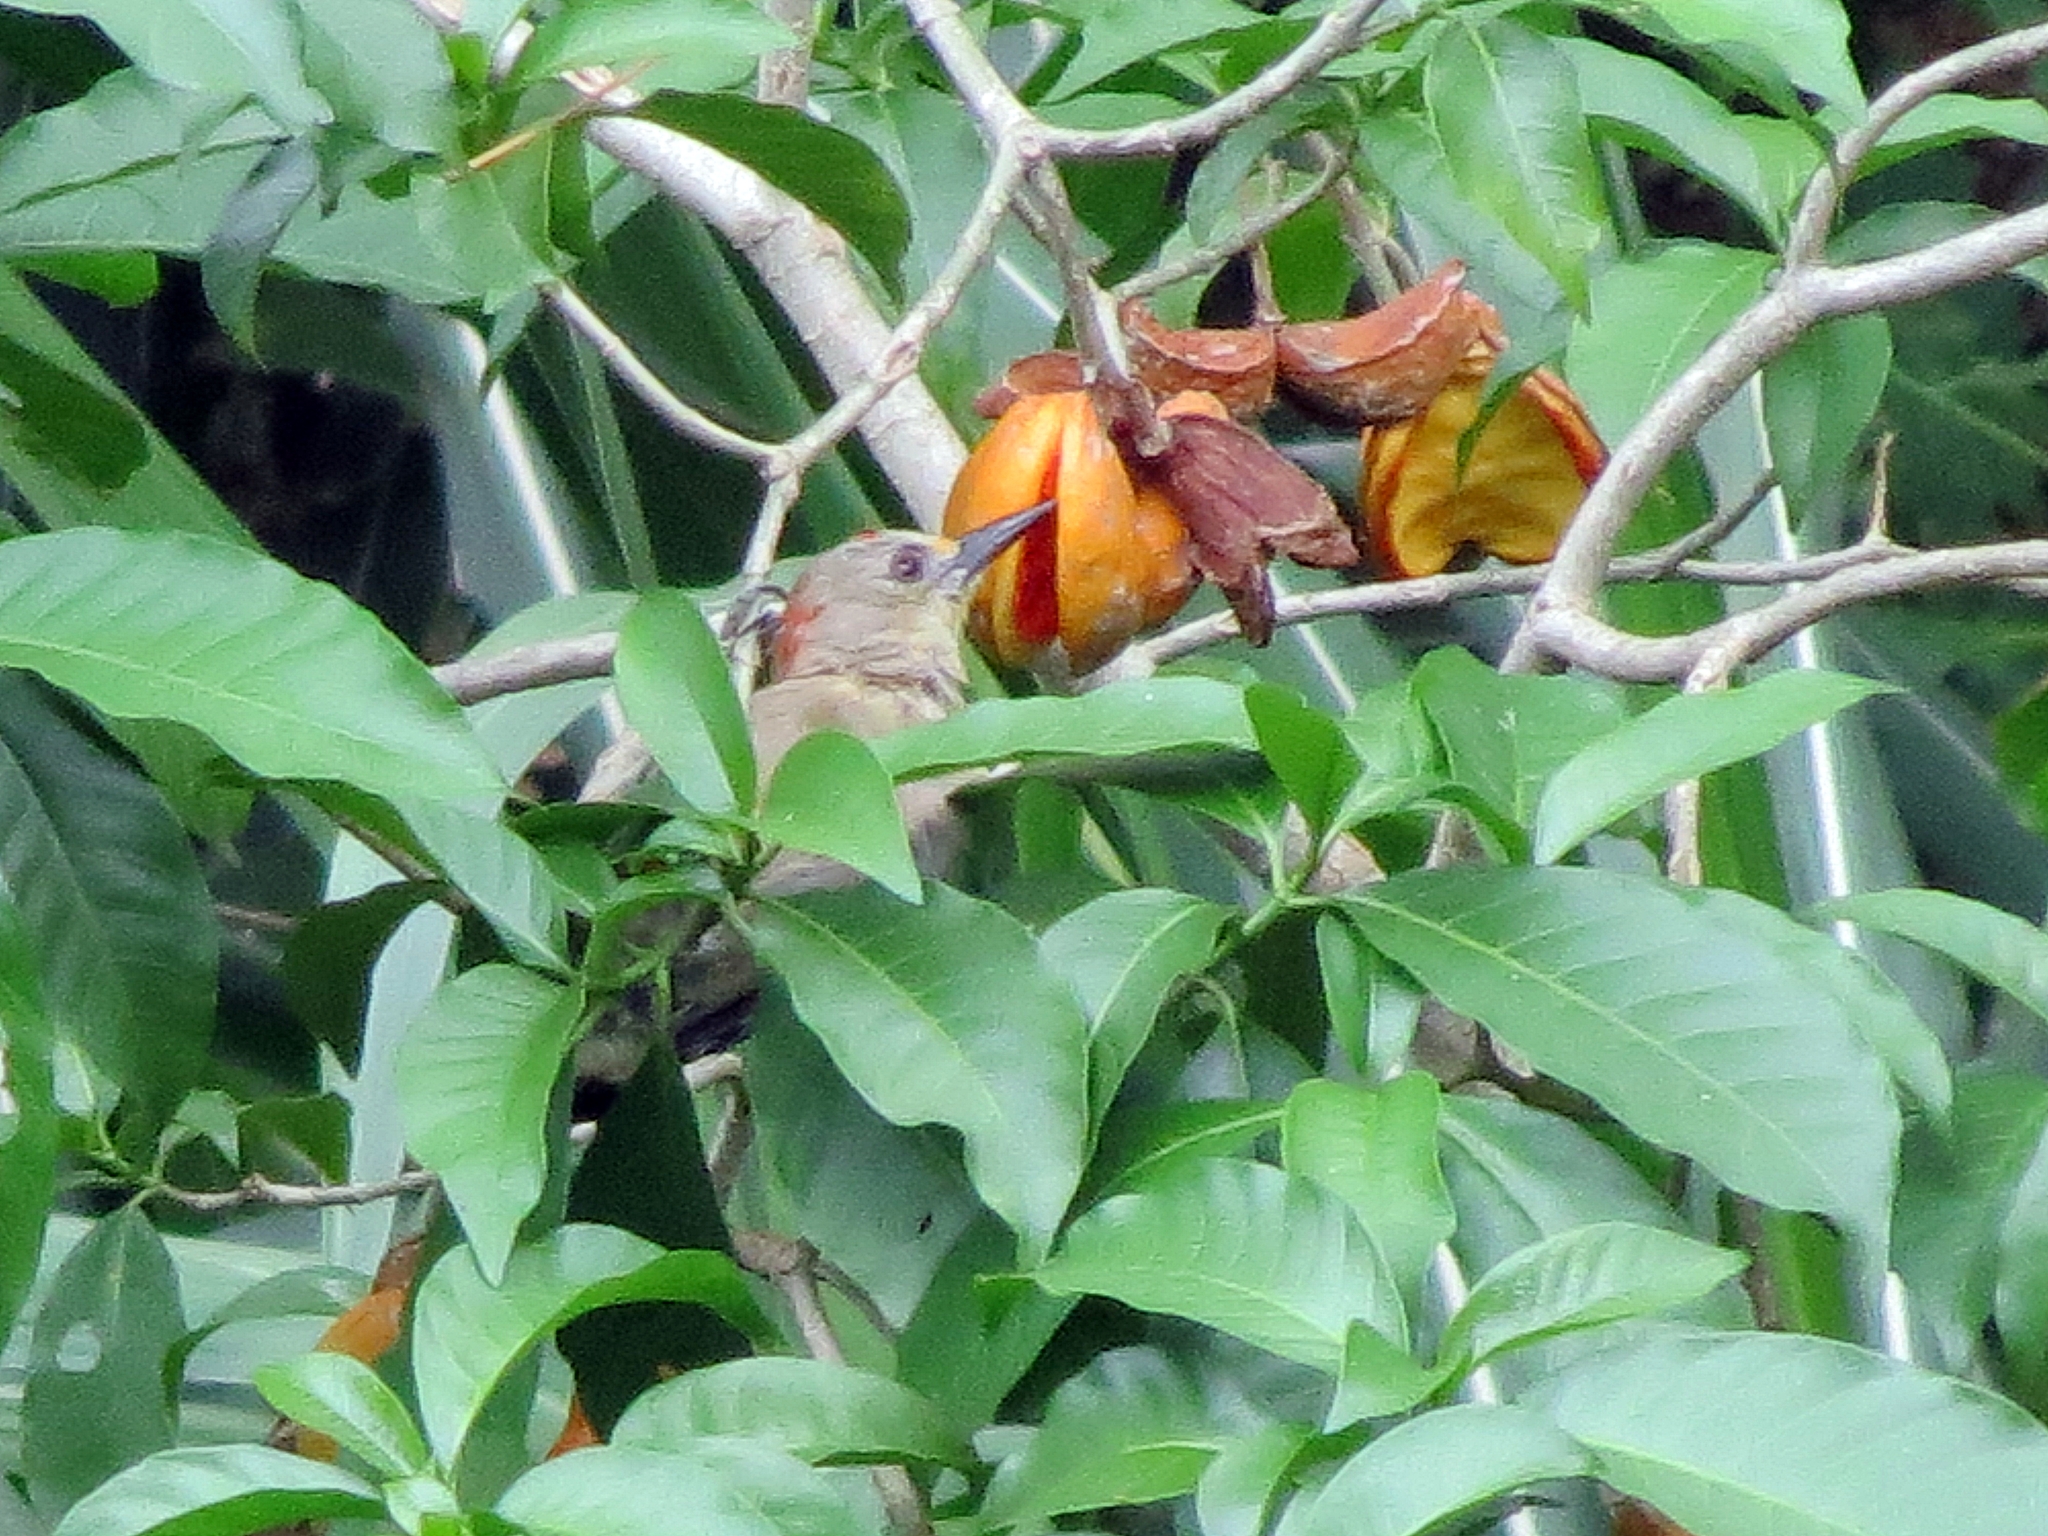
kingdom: Animalia
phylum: Chordata
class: Aves
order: Piciformes
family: Picidae
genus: Melanerpes
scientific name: Melanerpes rubricapillus
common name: Red-crowned woodpecker
